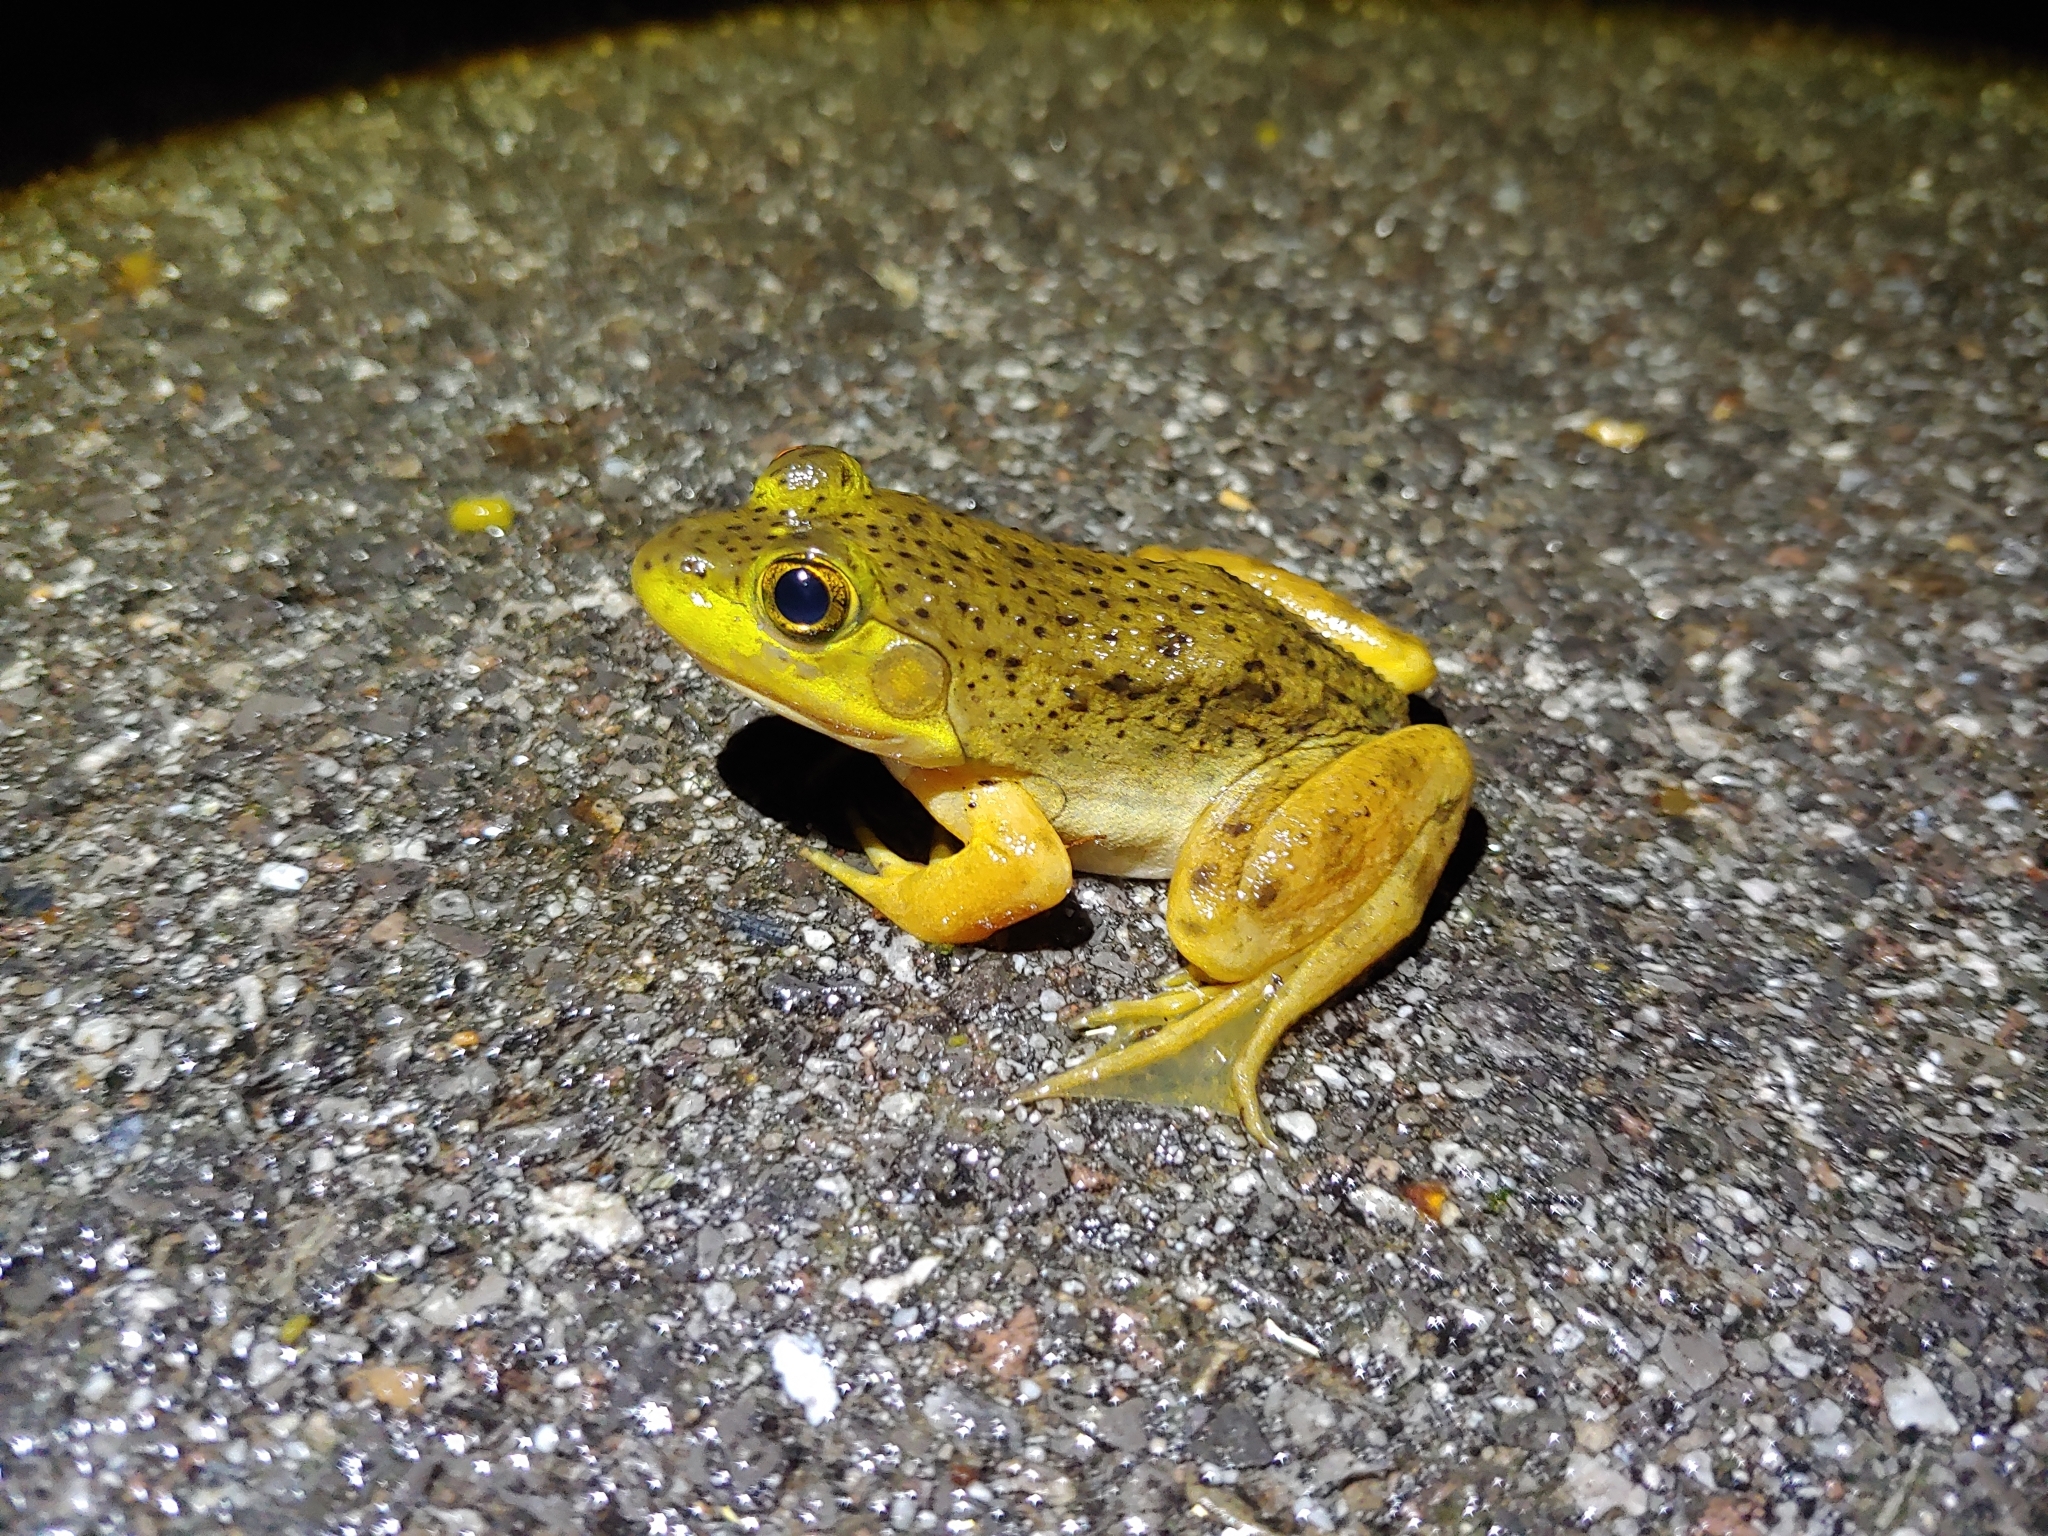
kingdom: Animalia
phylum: Chordata
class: Amphibia
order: Anura
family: Ranidae
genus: Lithobates
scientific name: Lithobates catesbeianus
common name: American bullfrog
